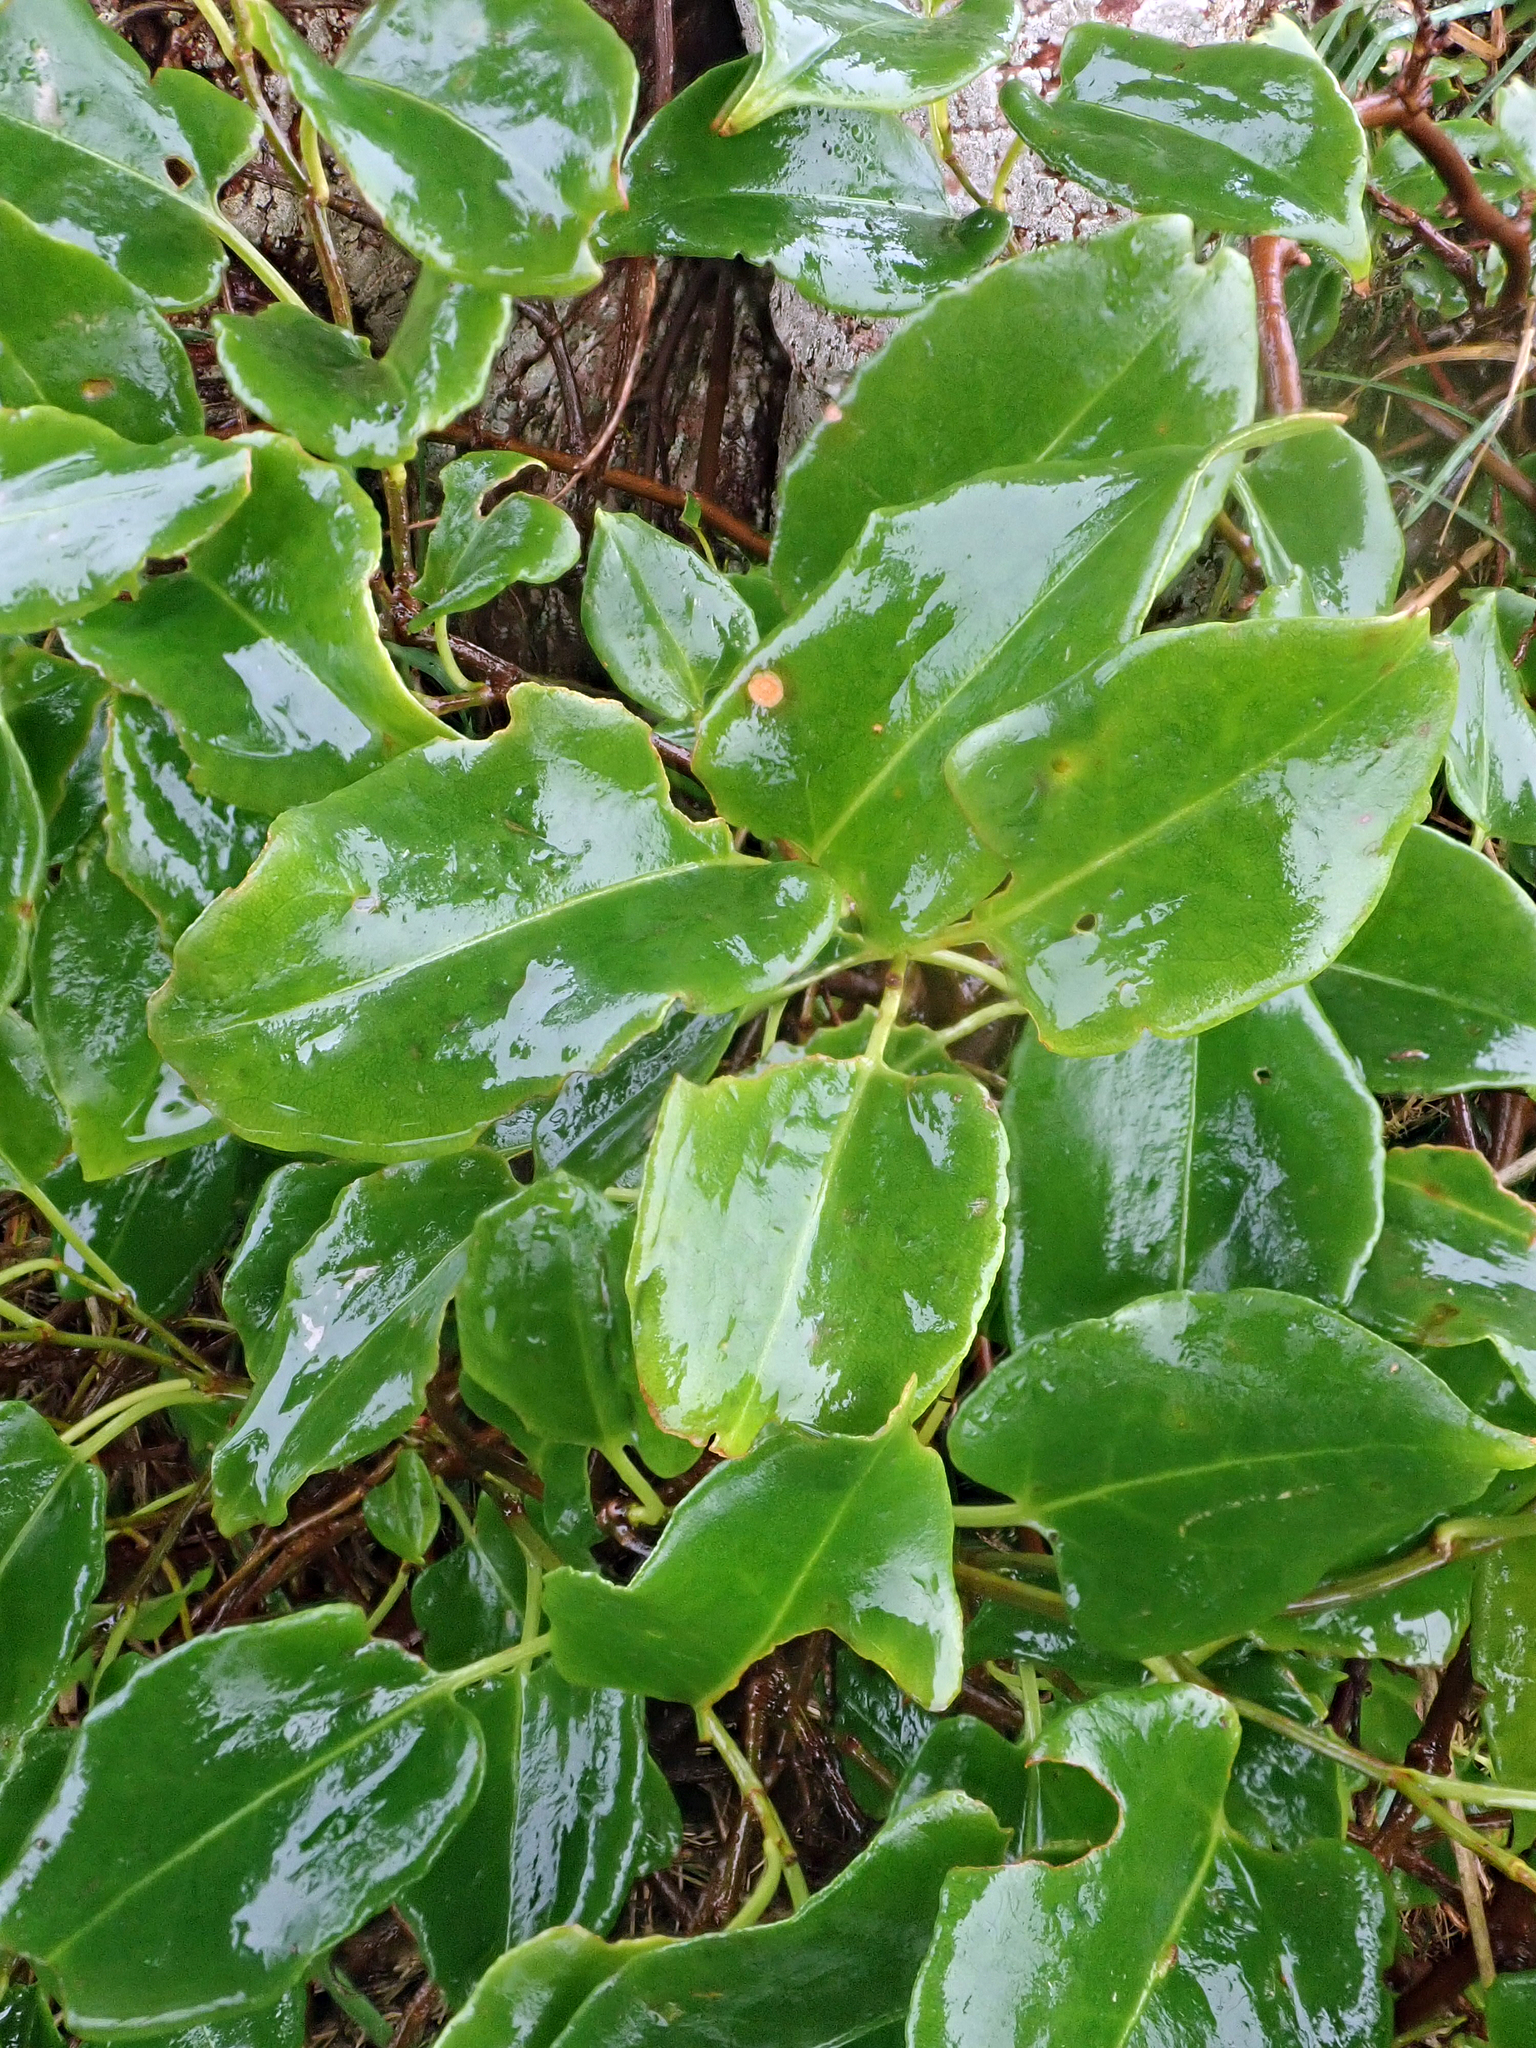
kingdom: Plantae
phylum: Tracheophyta
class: Magnoliopsida
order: Caryophyllales
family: Polygonaceae
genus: Muehlenbeckia
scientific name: Muehlenbeckia australis
